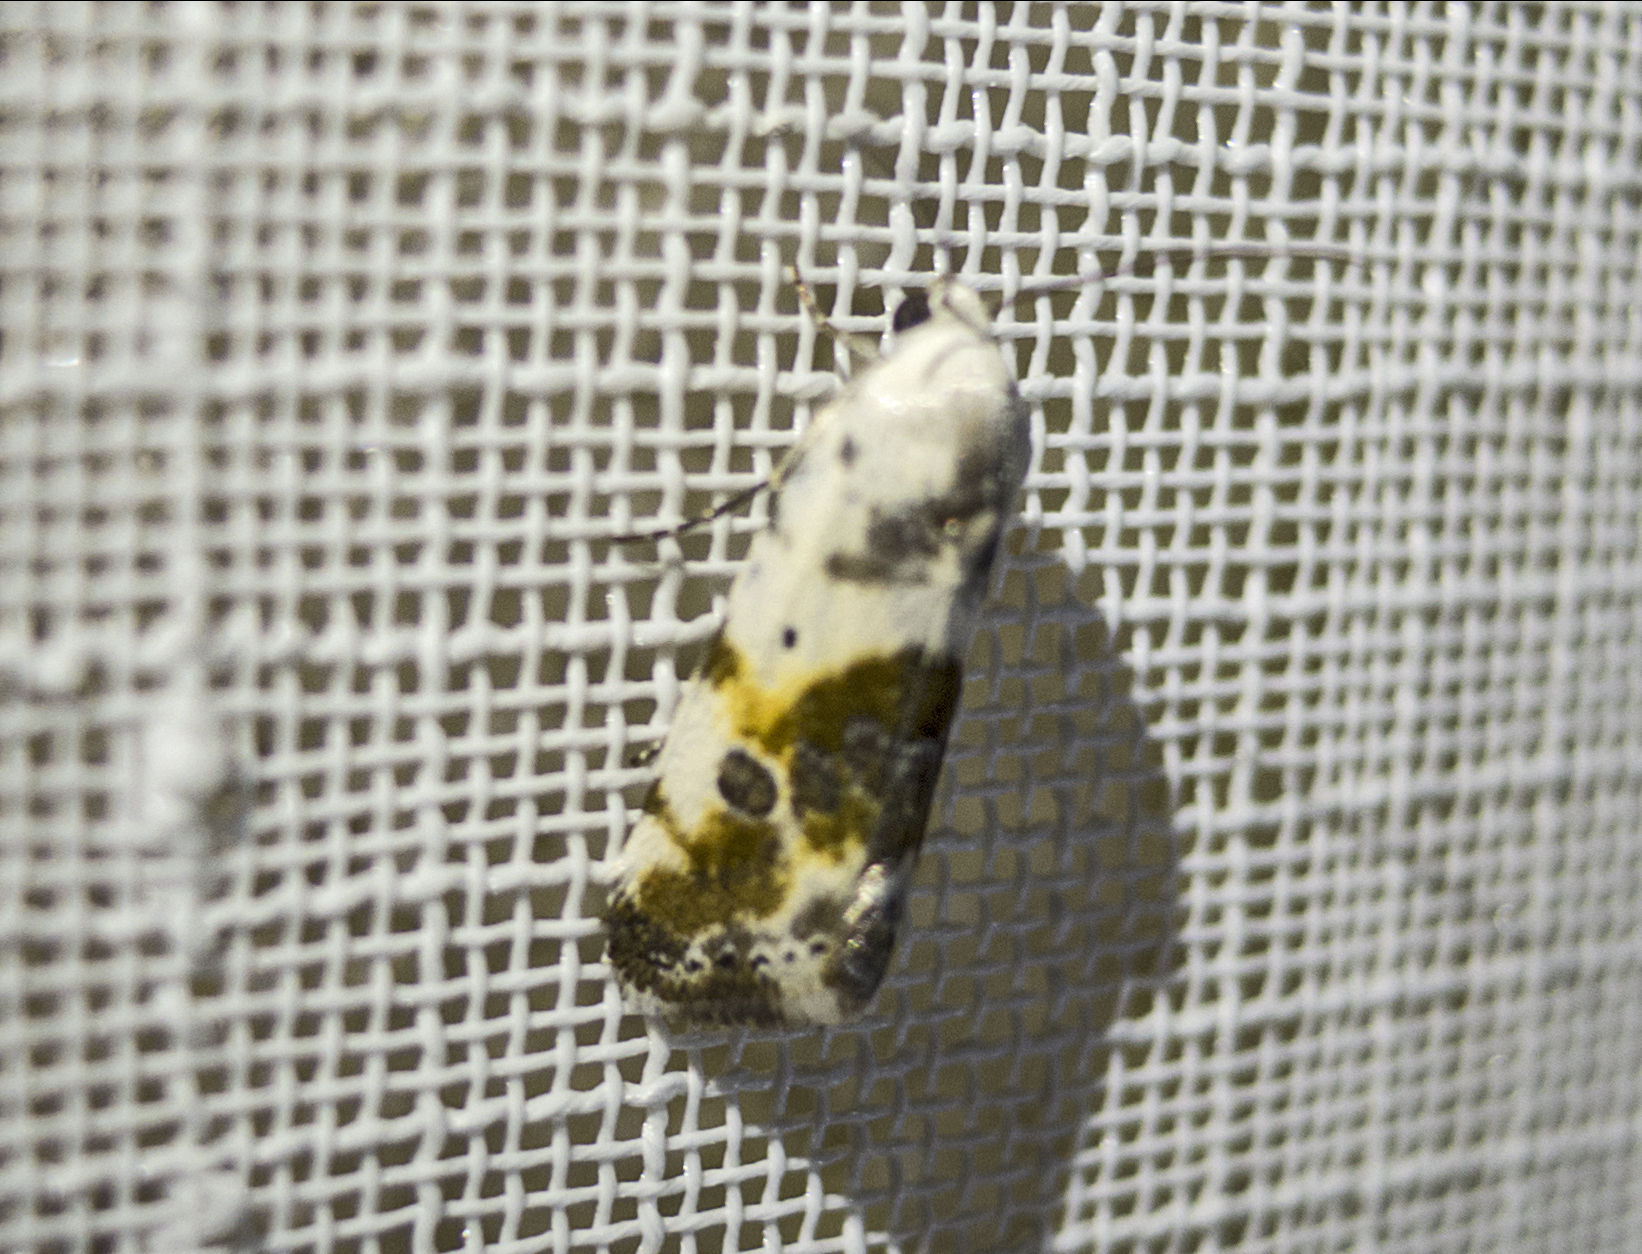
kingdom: Animalia
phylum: Arthropoda
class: Insecta
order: Lepidoptera
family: Noctuidae
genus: Acontia
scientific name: Acontia candefacta
